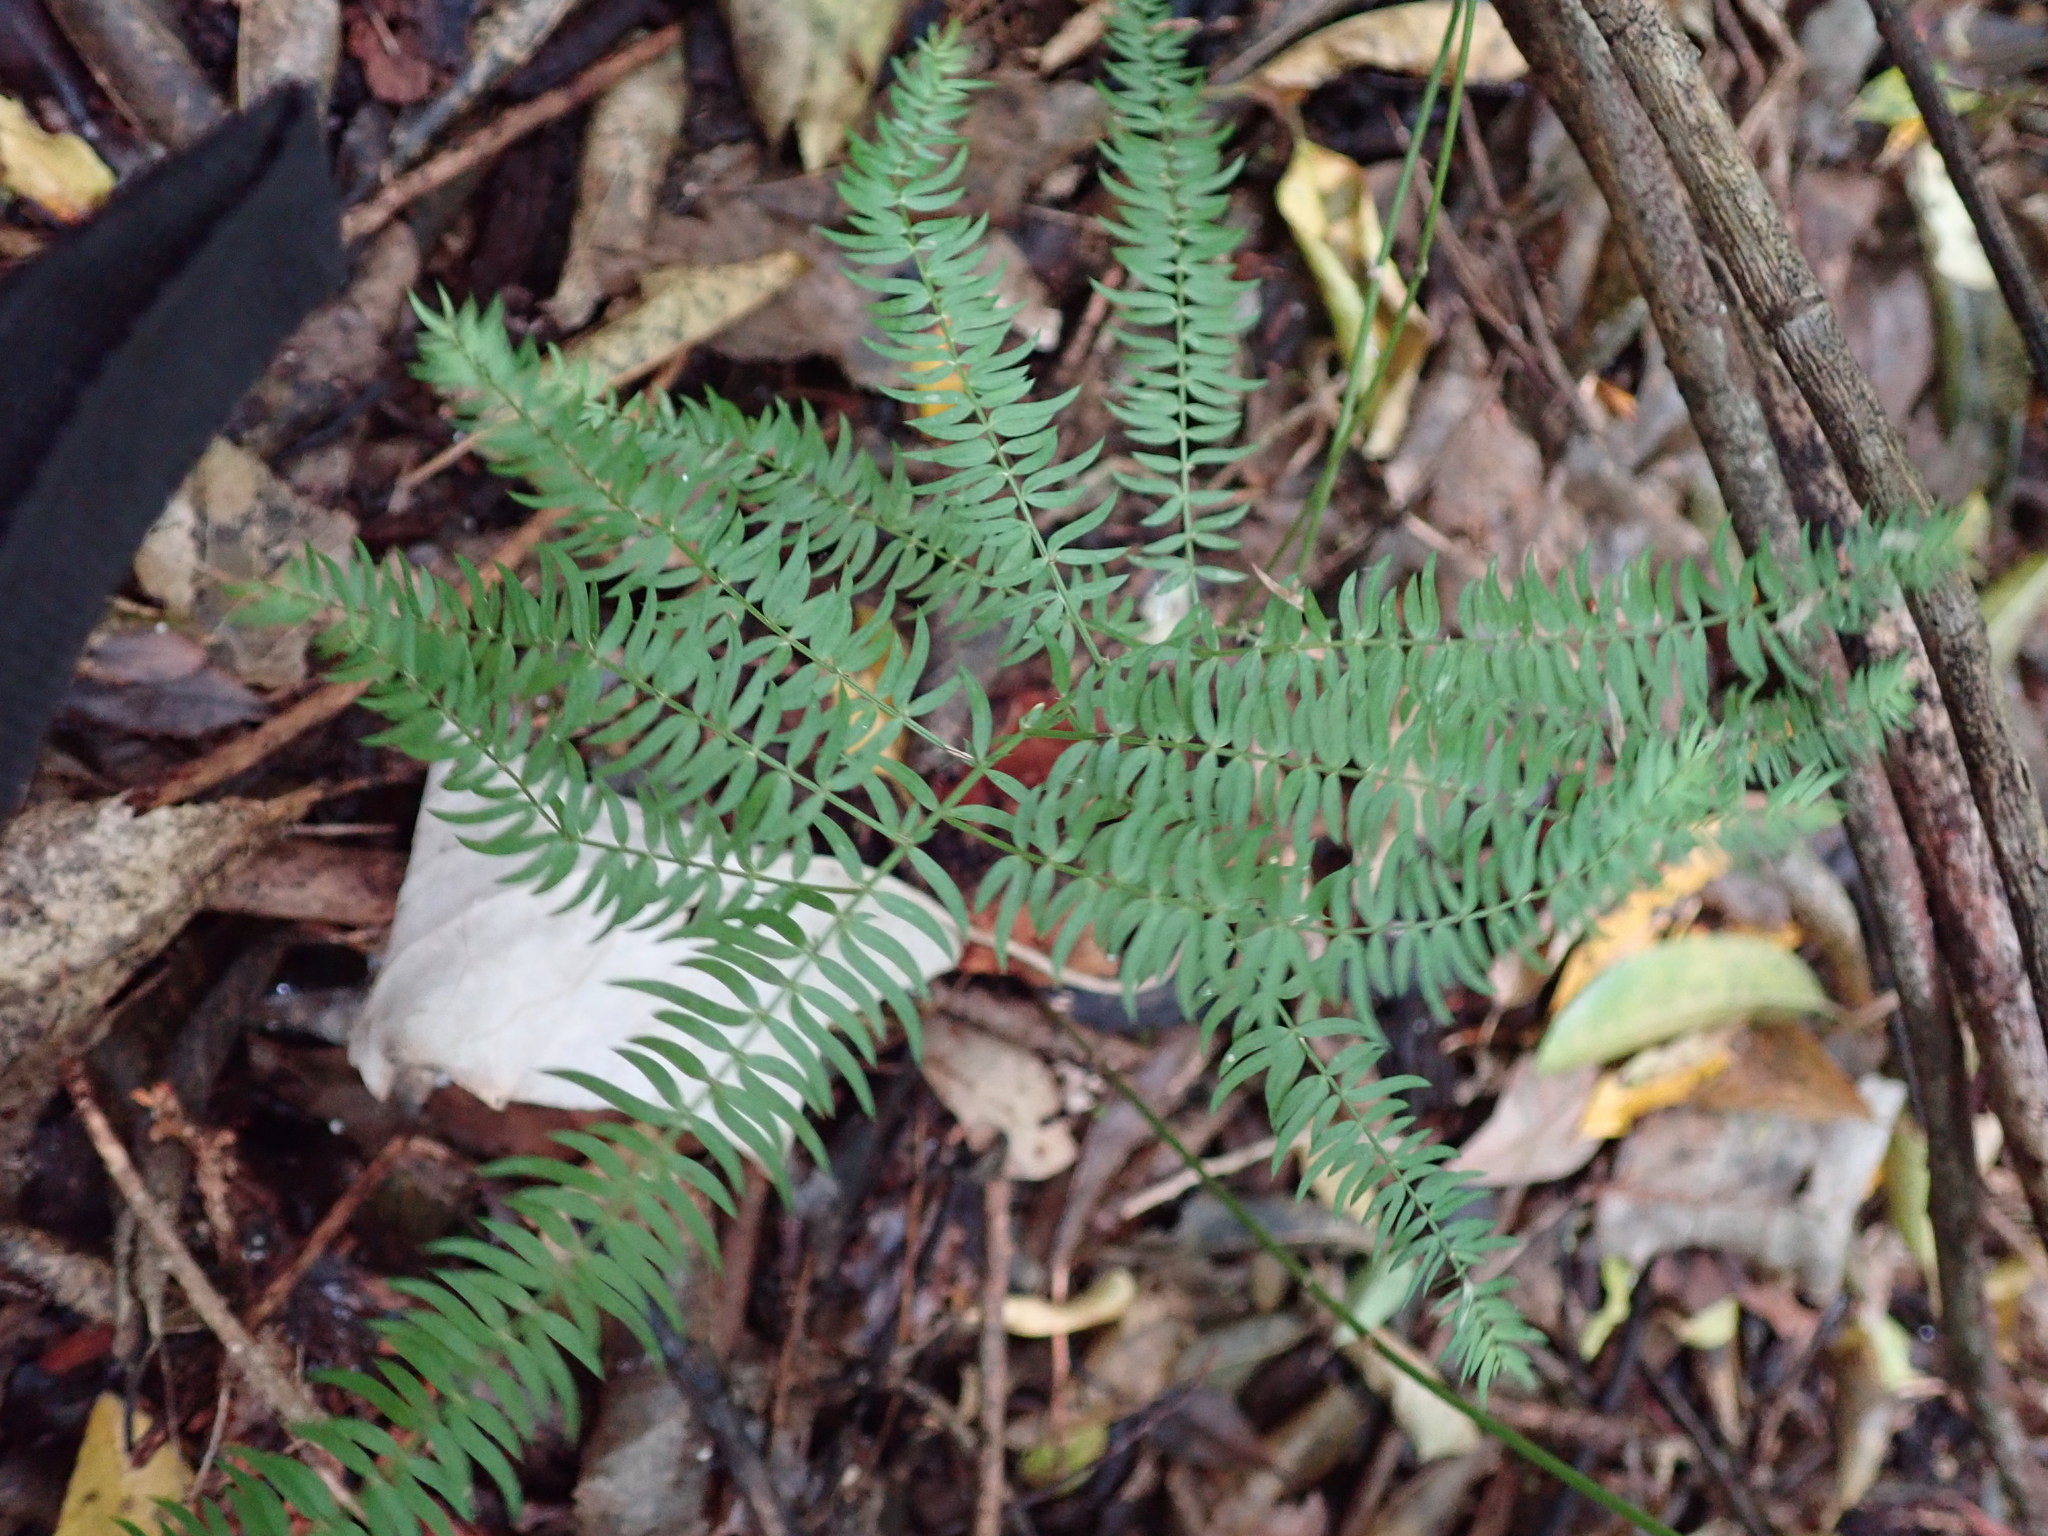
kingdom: Plantae
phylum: Tracheophyta
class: Liliopsida
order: Asparagales
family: Asparagaceae
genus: Asparagus
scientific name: Asparagus scandens
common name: Asparagus-fern
